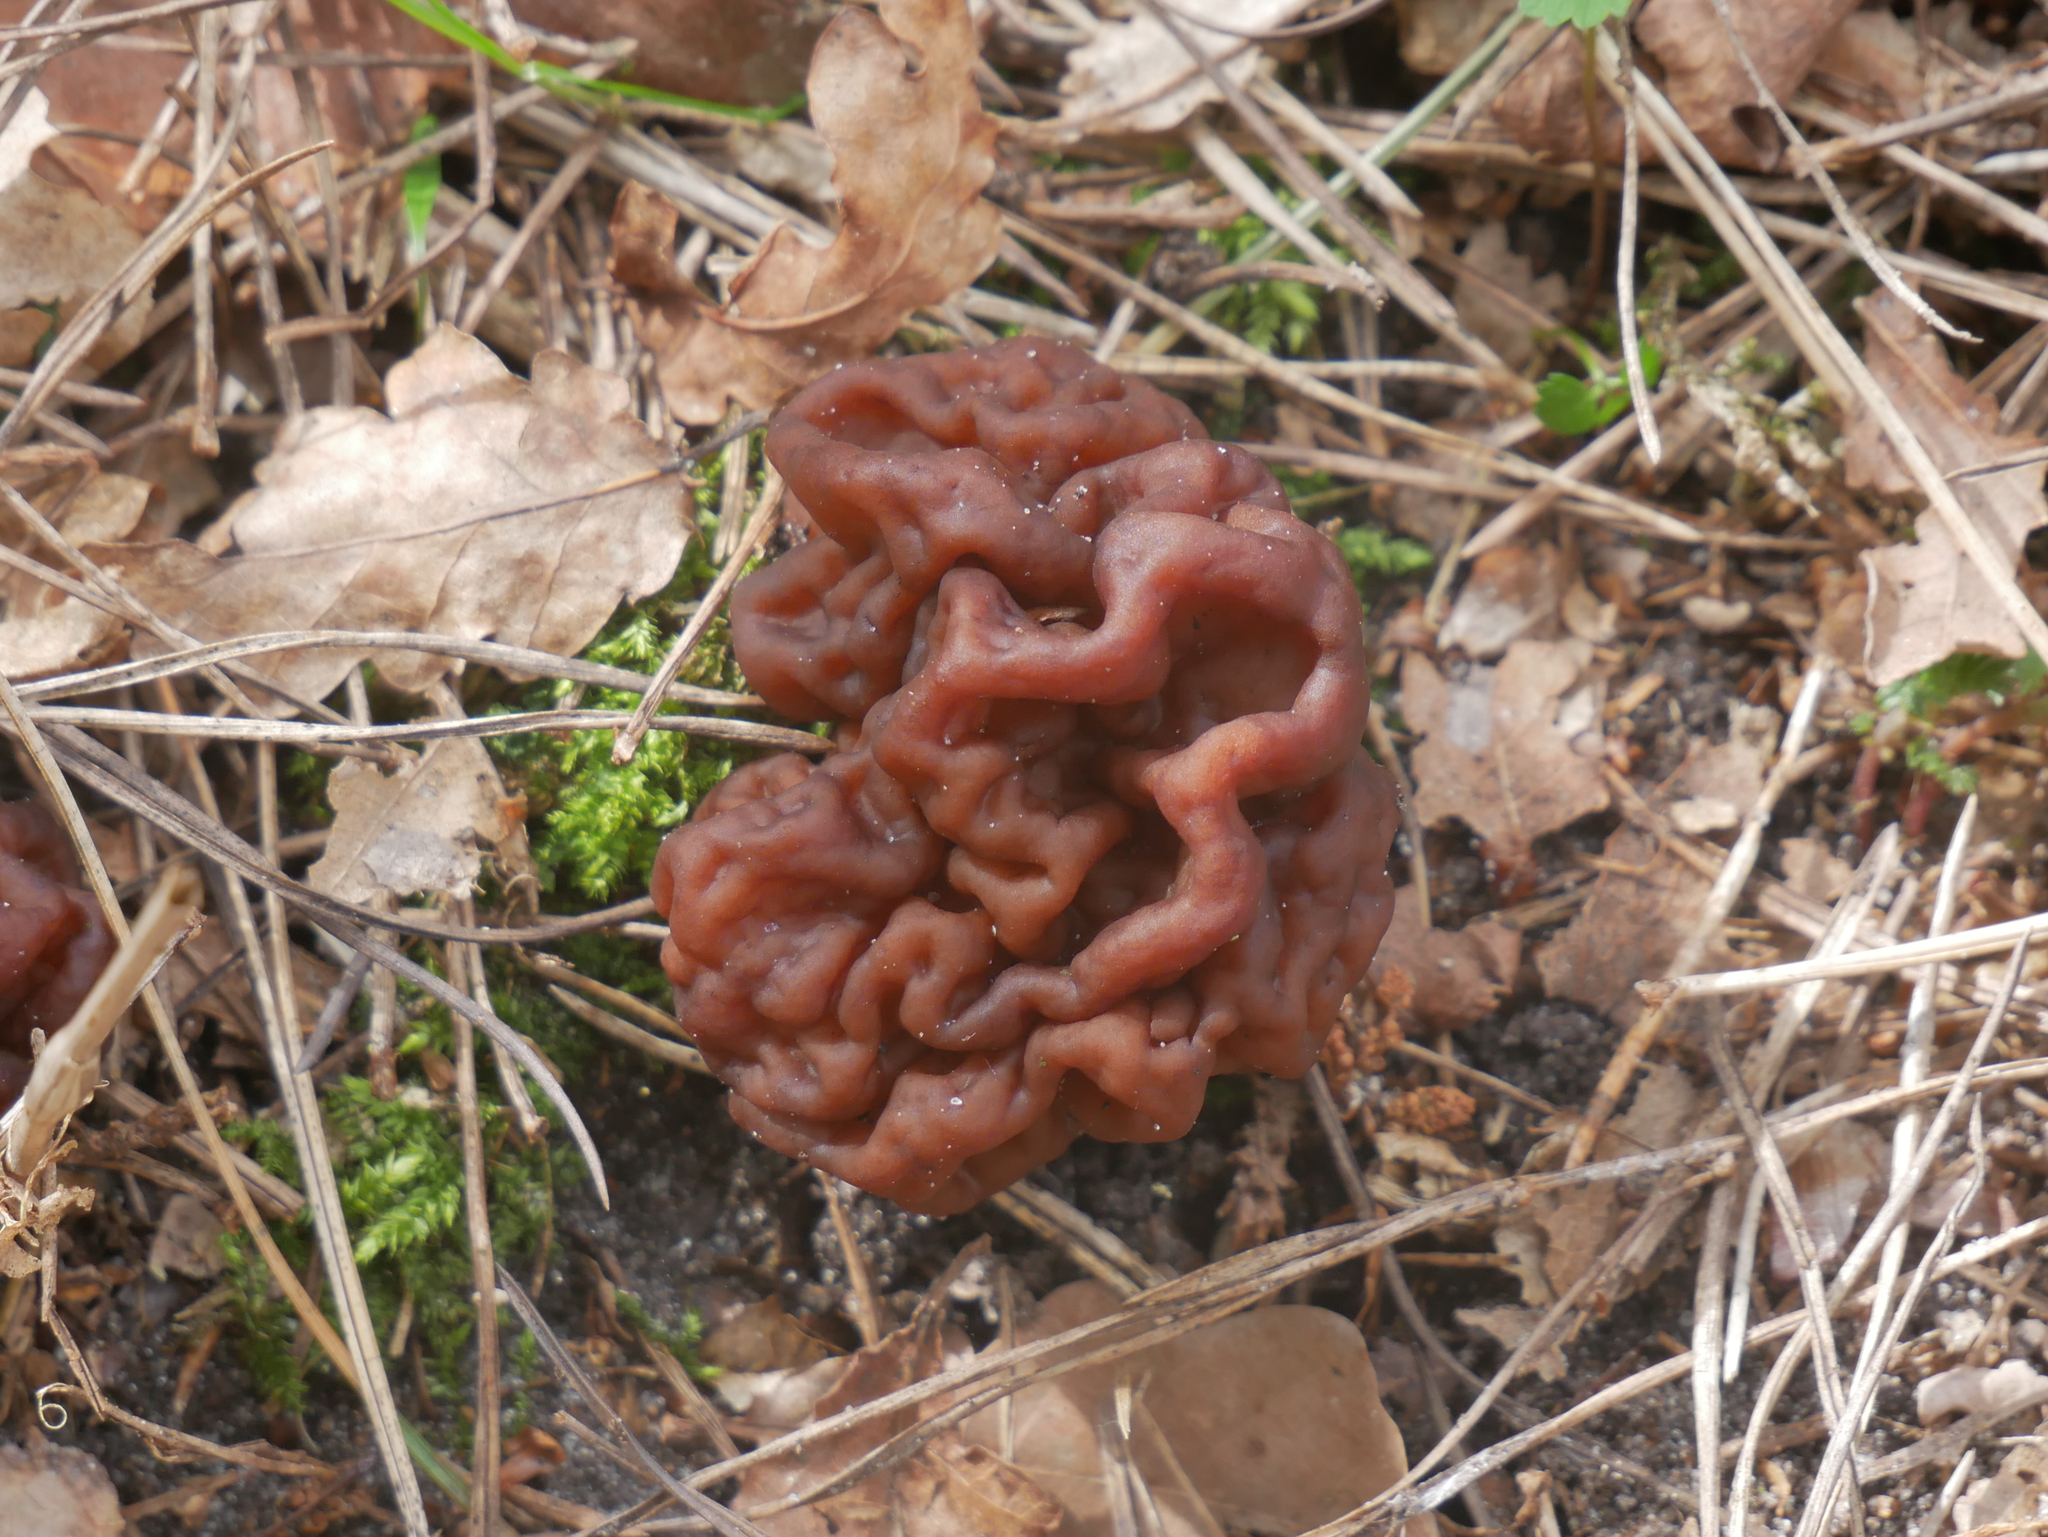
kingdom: Fungi
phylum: Ascomycota
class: Pezizomycetes
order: Pezizales
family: Discinaceae
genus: Gyromitra
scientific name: Gyromitra esculenta
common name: False morel
